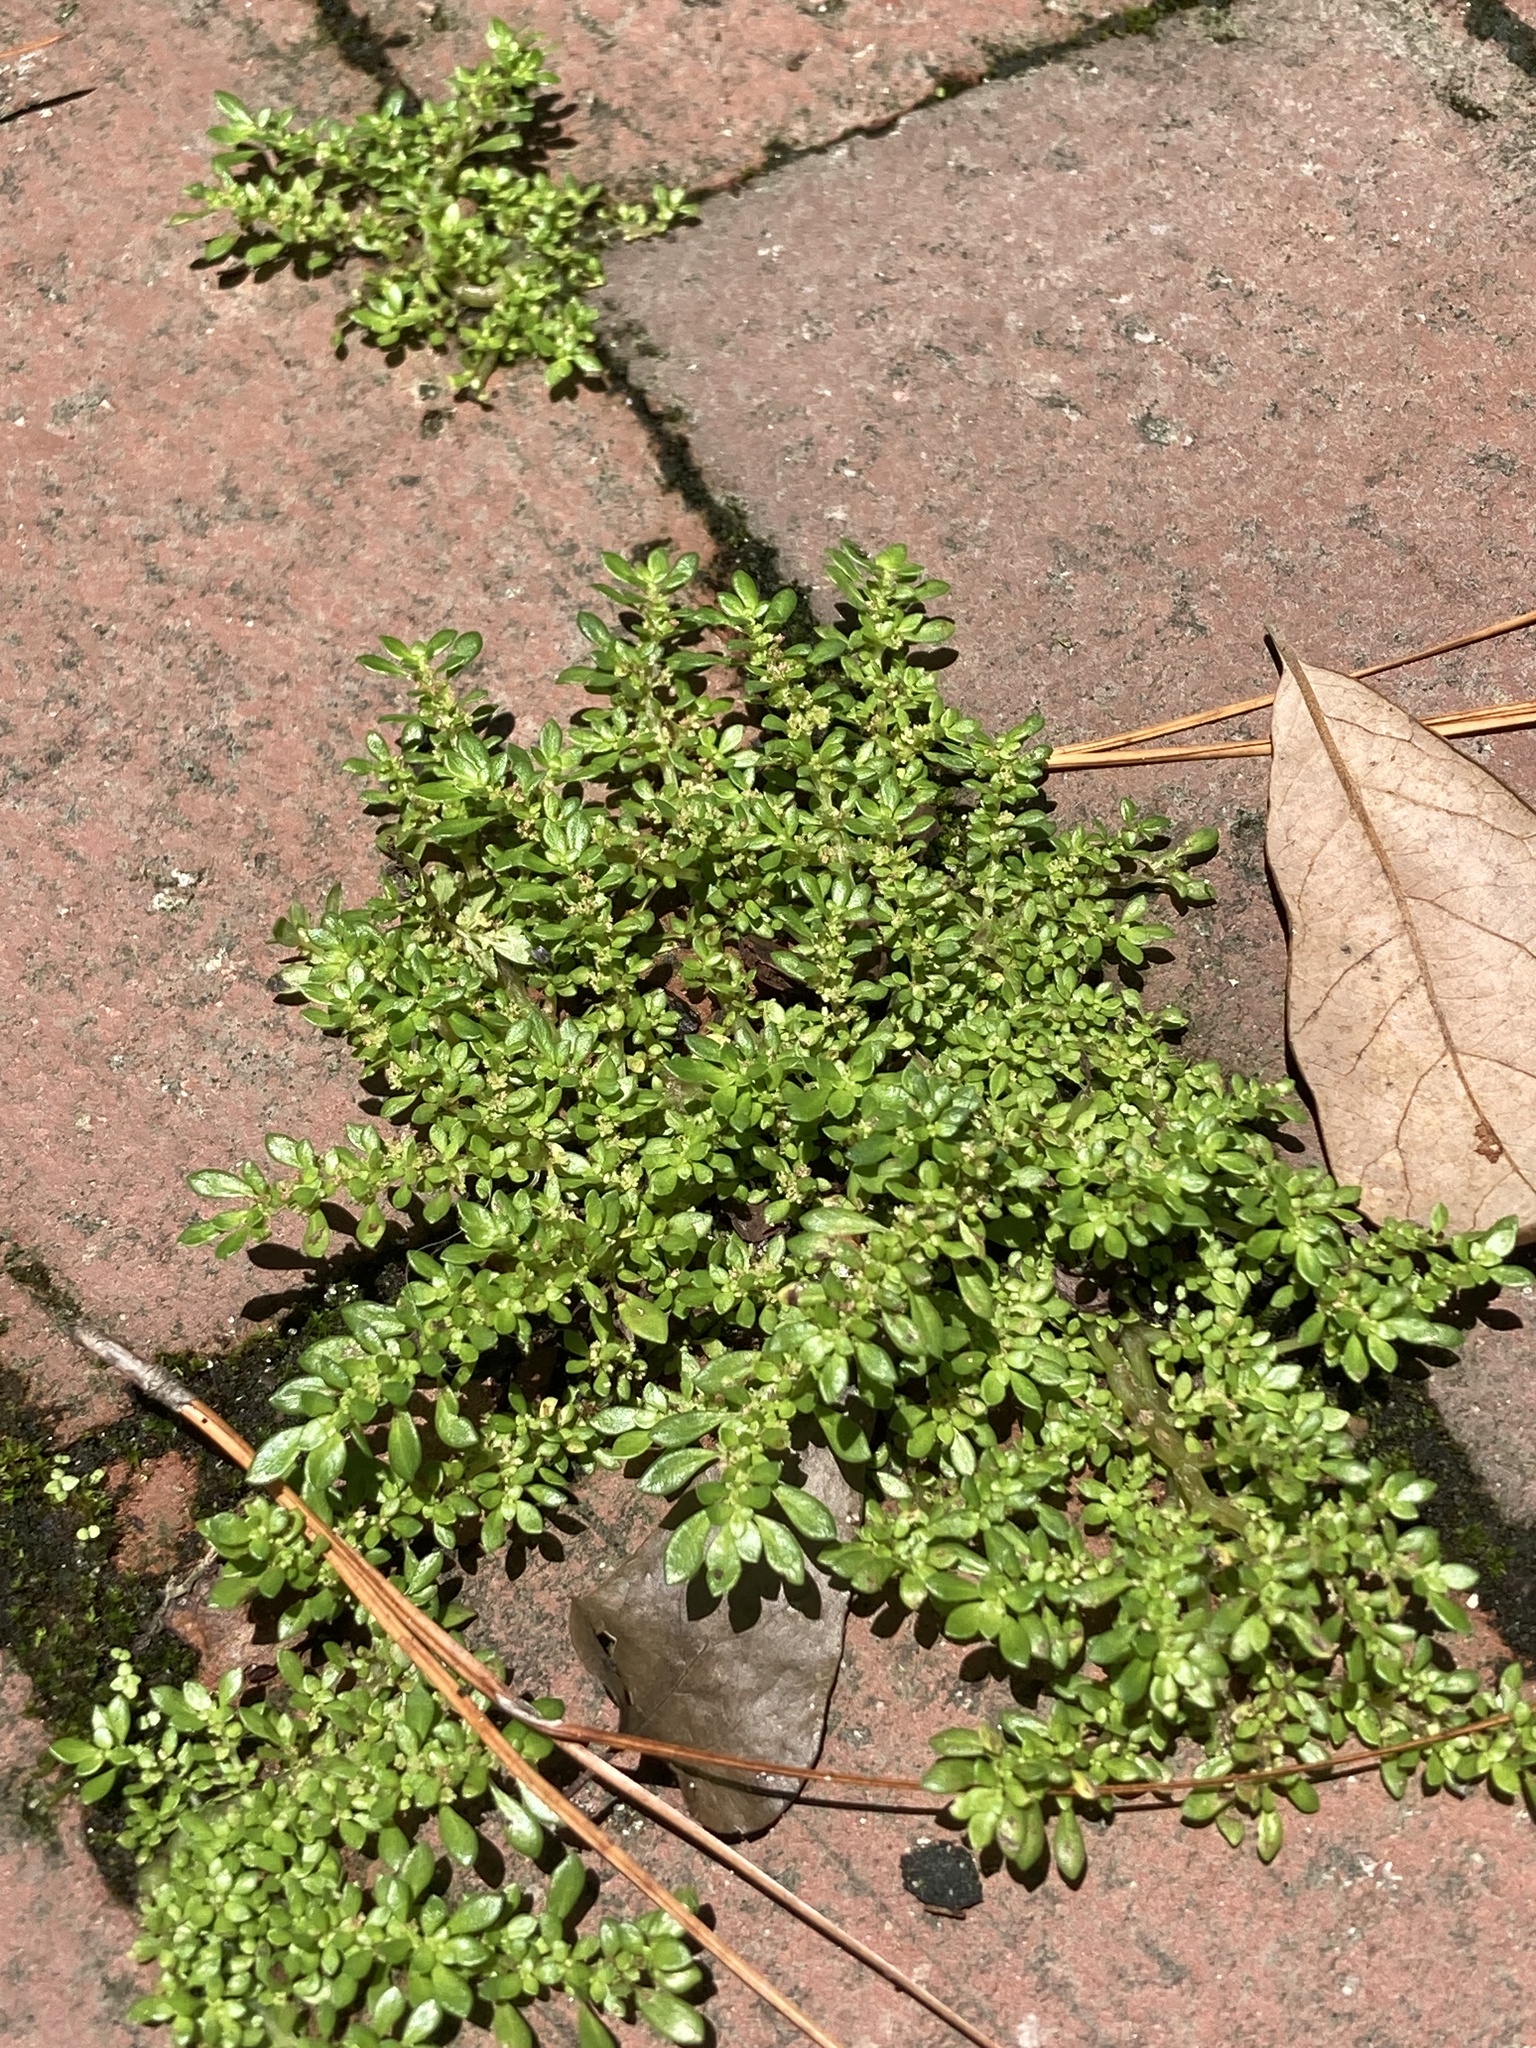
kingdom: Plantae
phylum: Tracheophyta
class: Magnoliopsida
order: Rosales
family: Urticaceae
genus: Pilea
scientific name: Pilea microphylla
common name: Artillery-plant
